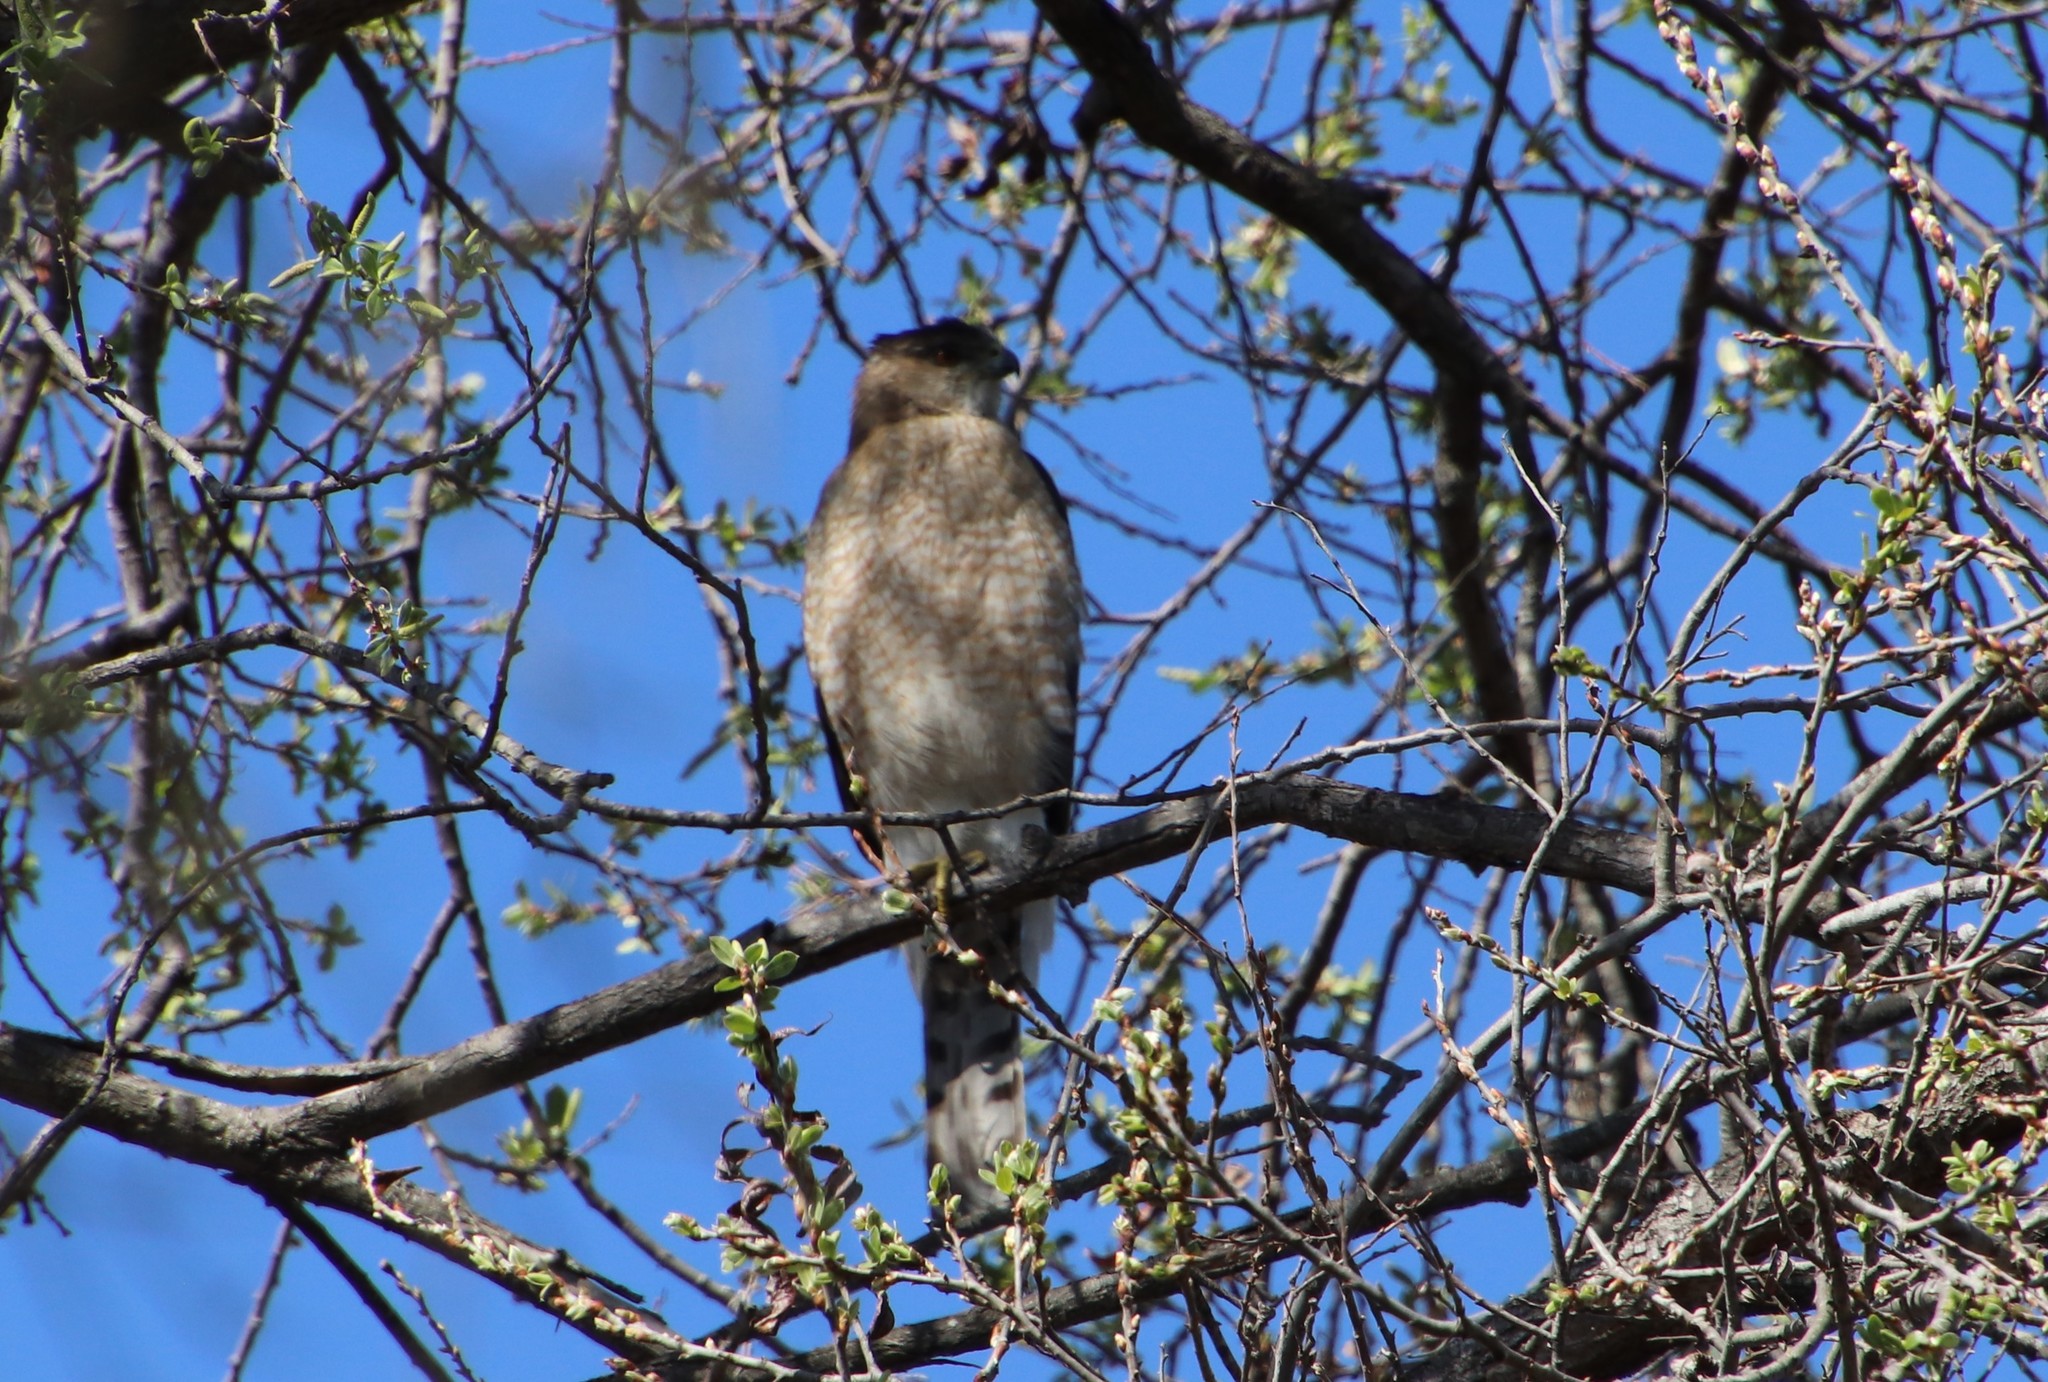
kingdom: Animalia
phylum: Chordata
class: Aves
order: Accipitriformes
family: Accipitridae
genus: Accipiter
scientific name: Accipiter cooperii
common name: Cooper's hawk
